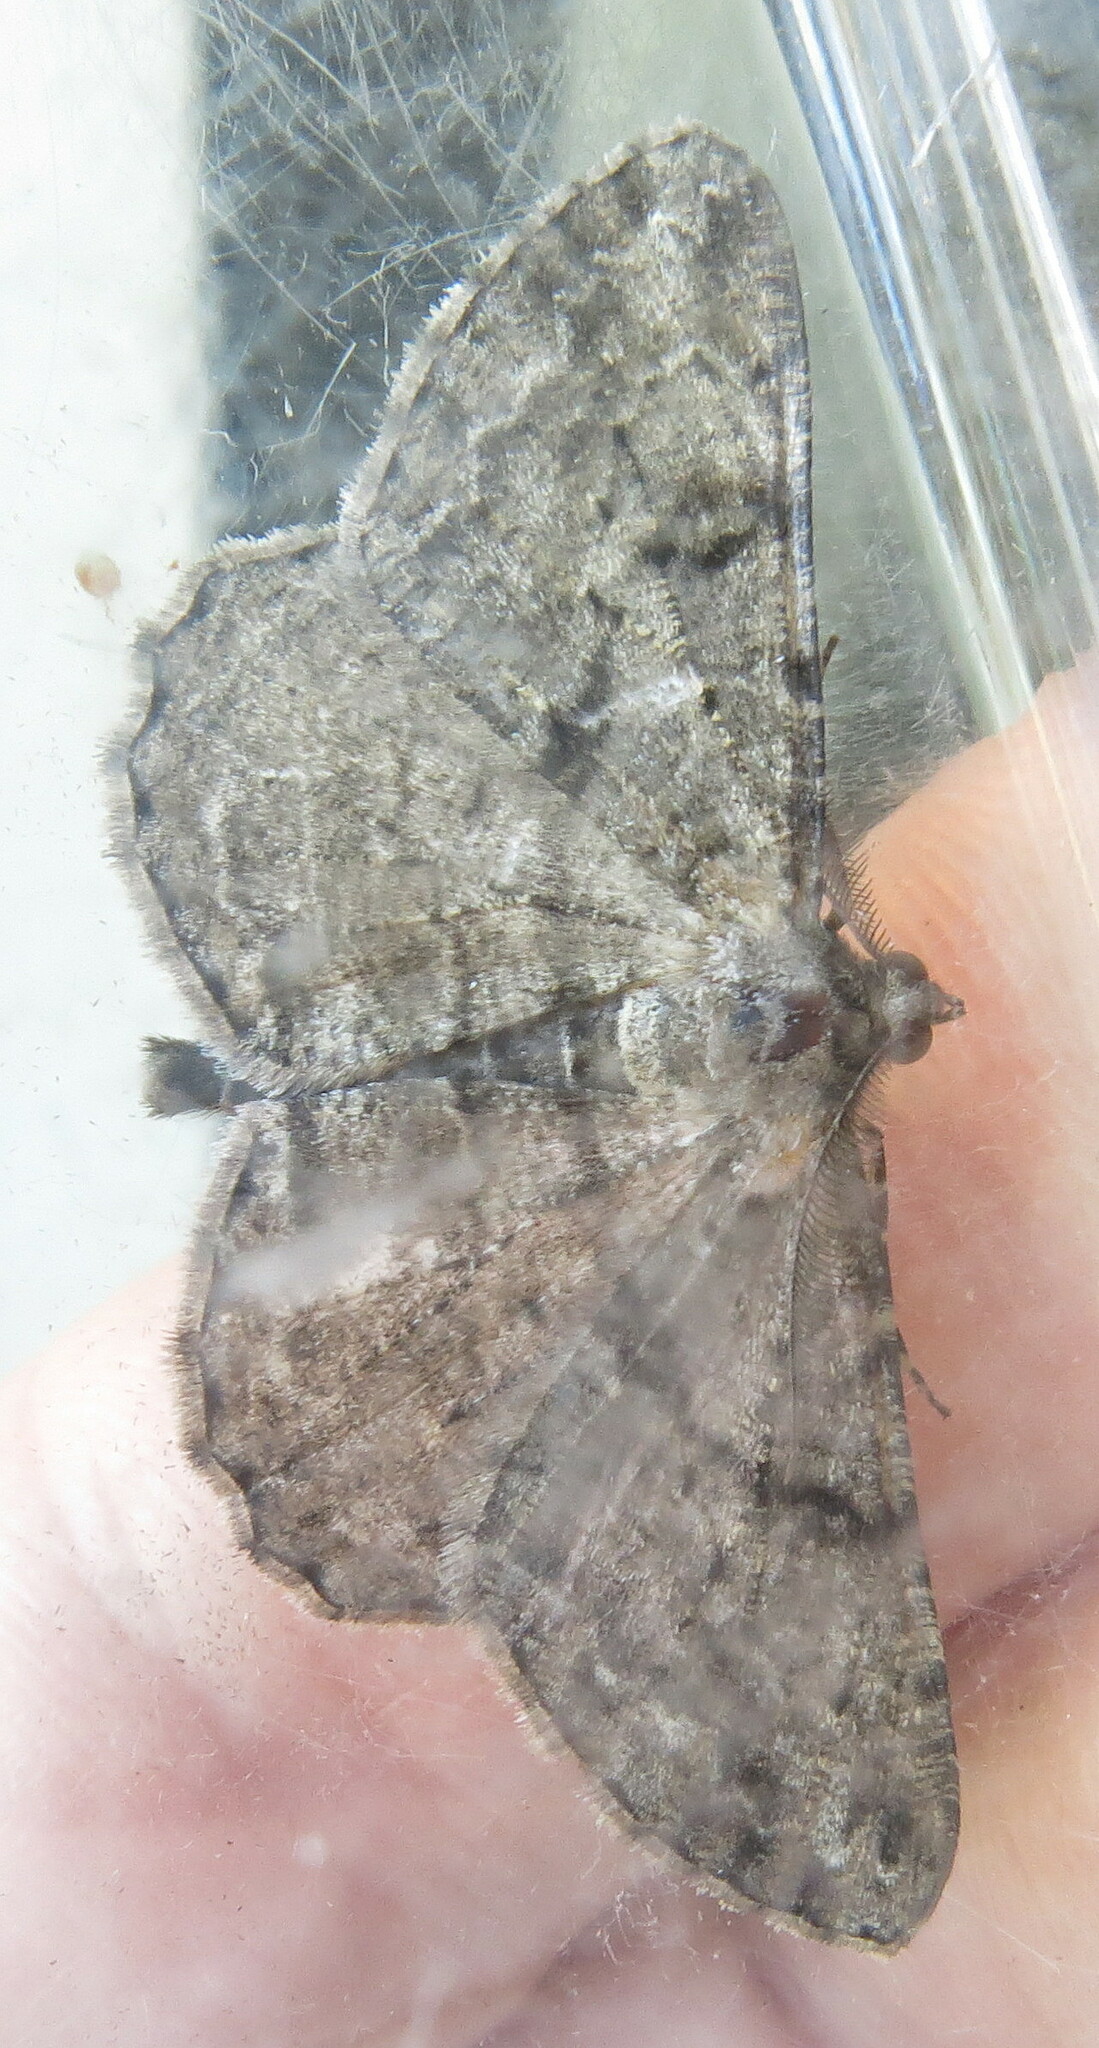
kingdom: Animalia
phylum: Arthropoda
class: Insecta
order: Lepidoptera
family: Geometridae
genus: Peribatodes
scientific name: Peribatodes rhomboidaria
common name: Willow beauty
